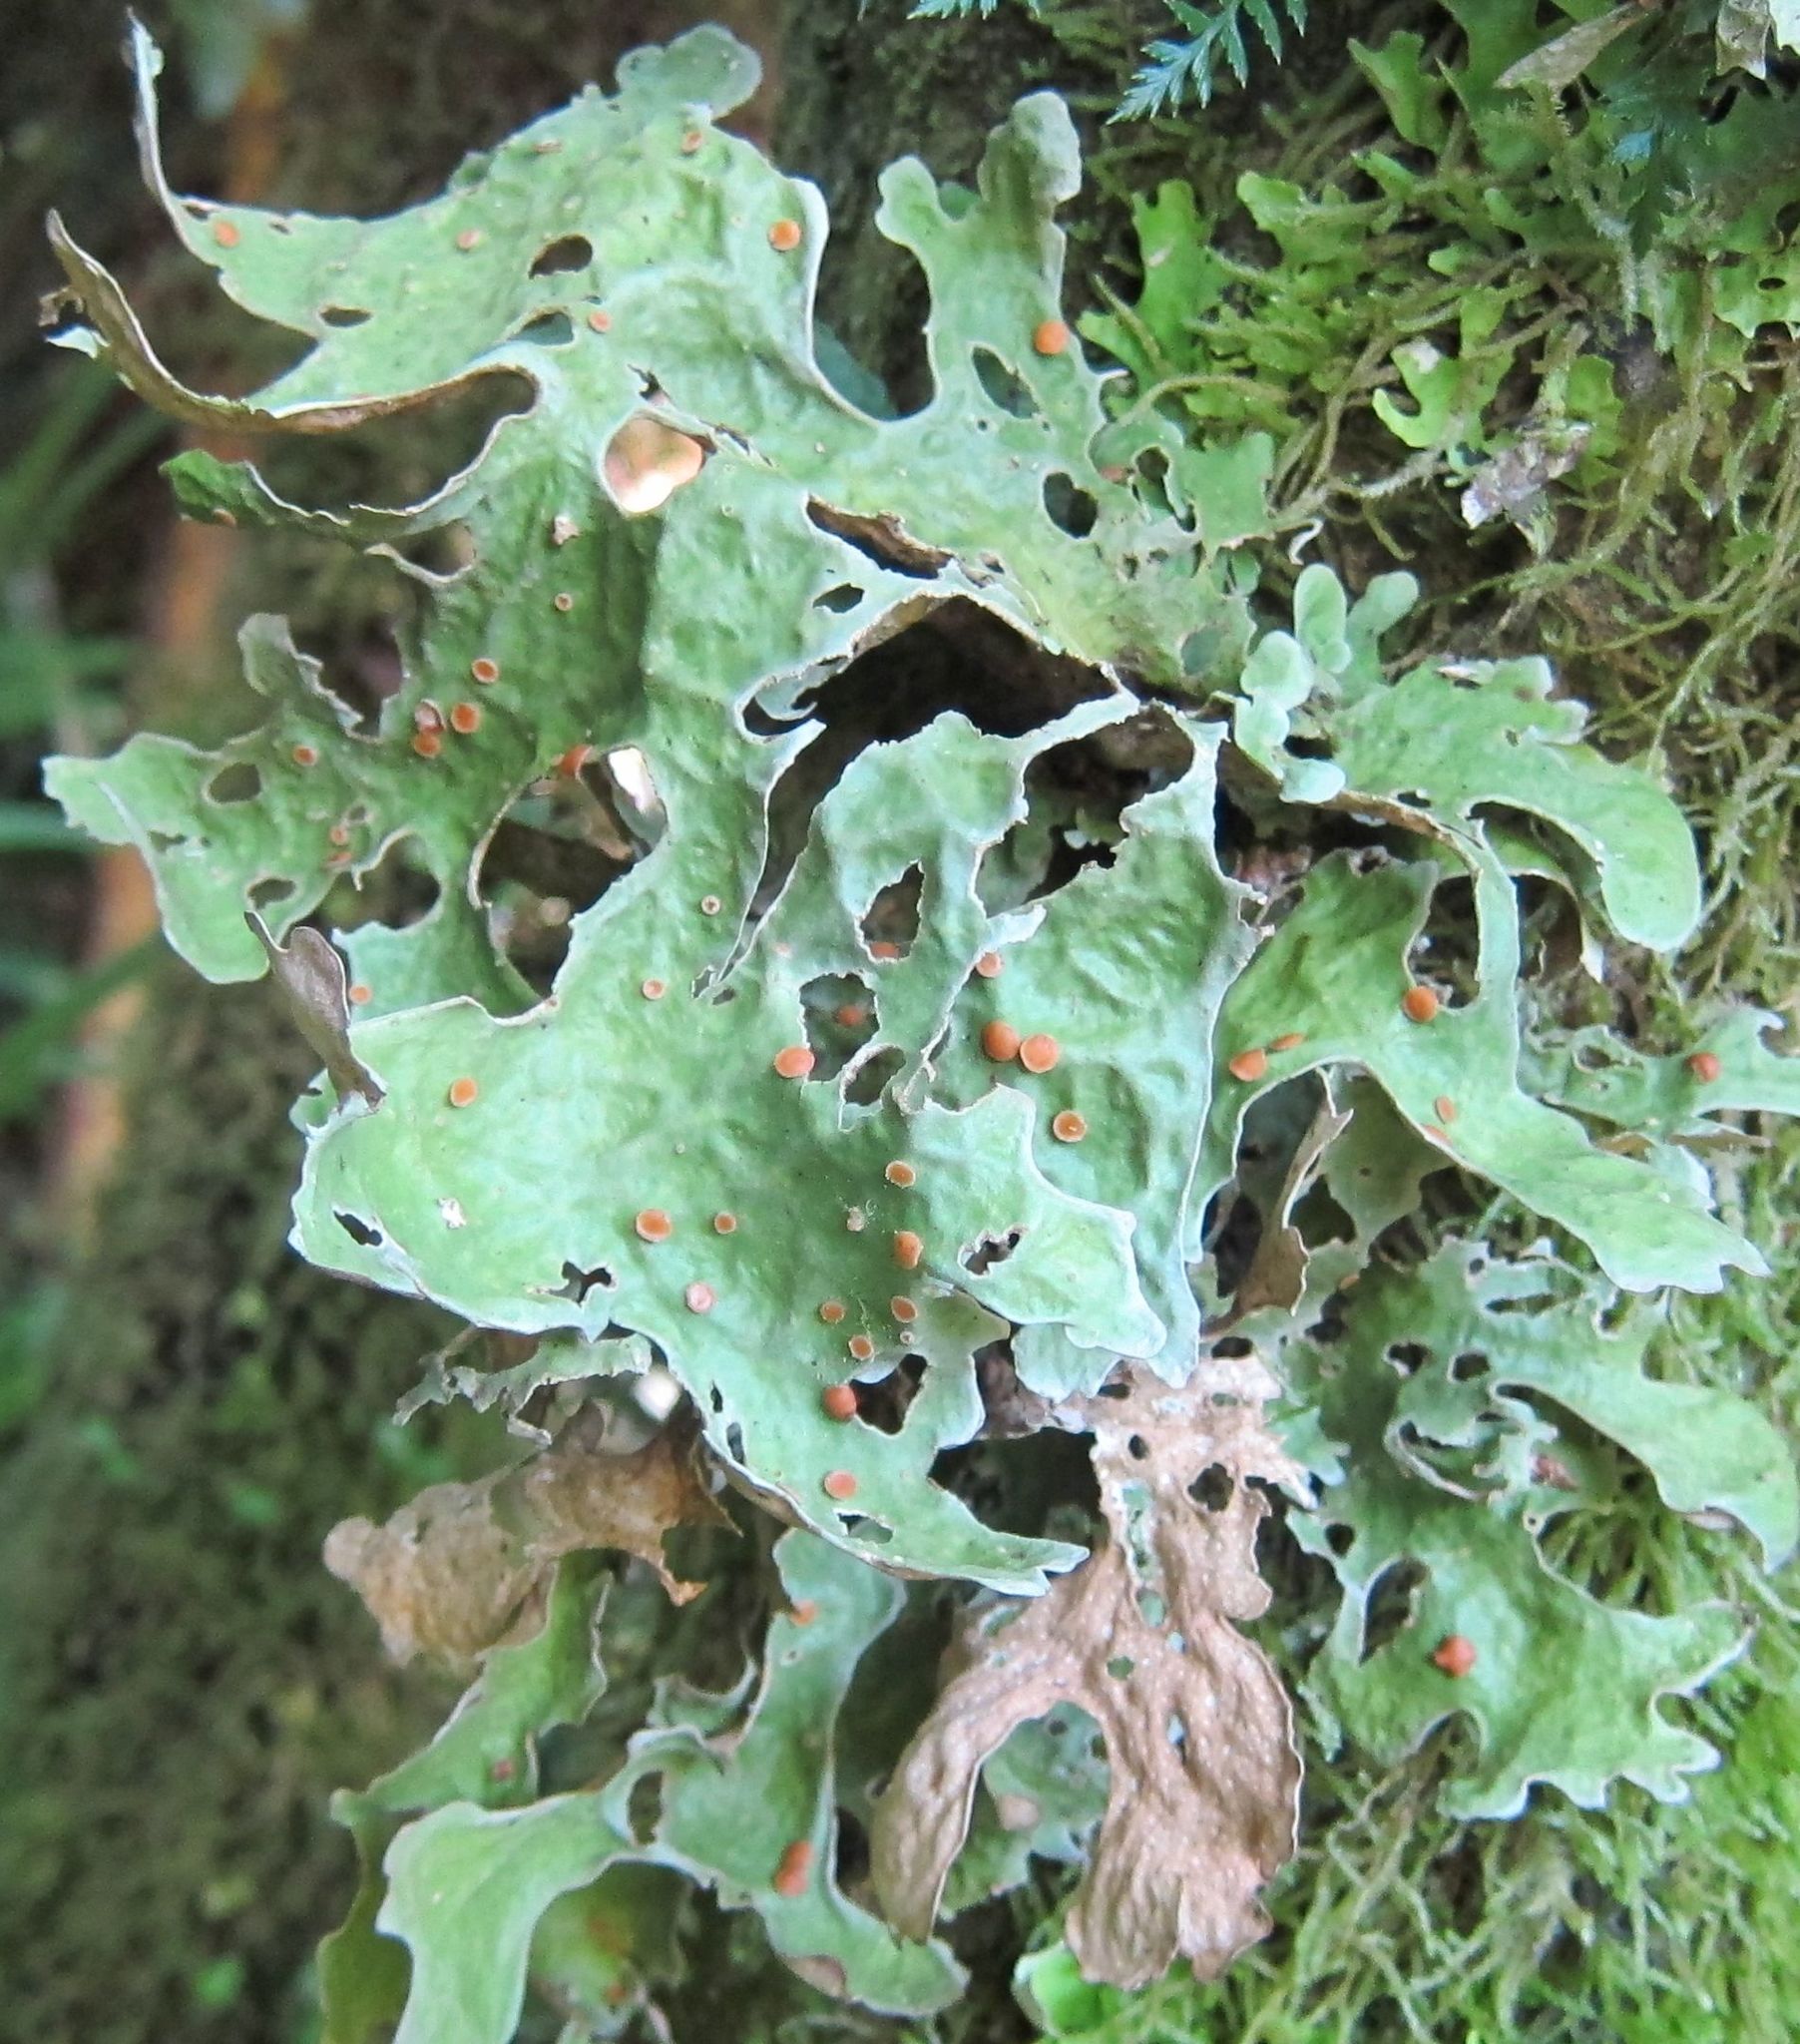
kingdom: Fungi
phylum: Ascomycota
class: Lecanoromycetes
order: Peltigerales
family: Lobariaceae
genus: Sticta
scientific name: Sticta latifrons
